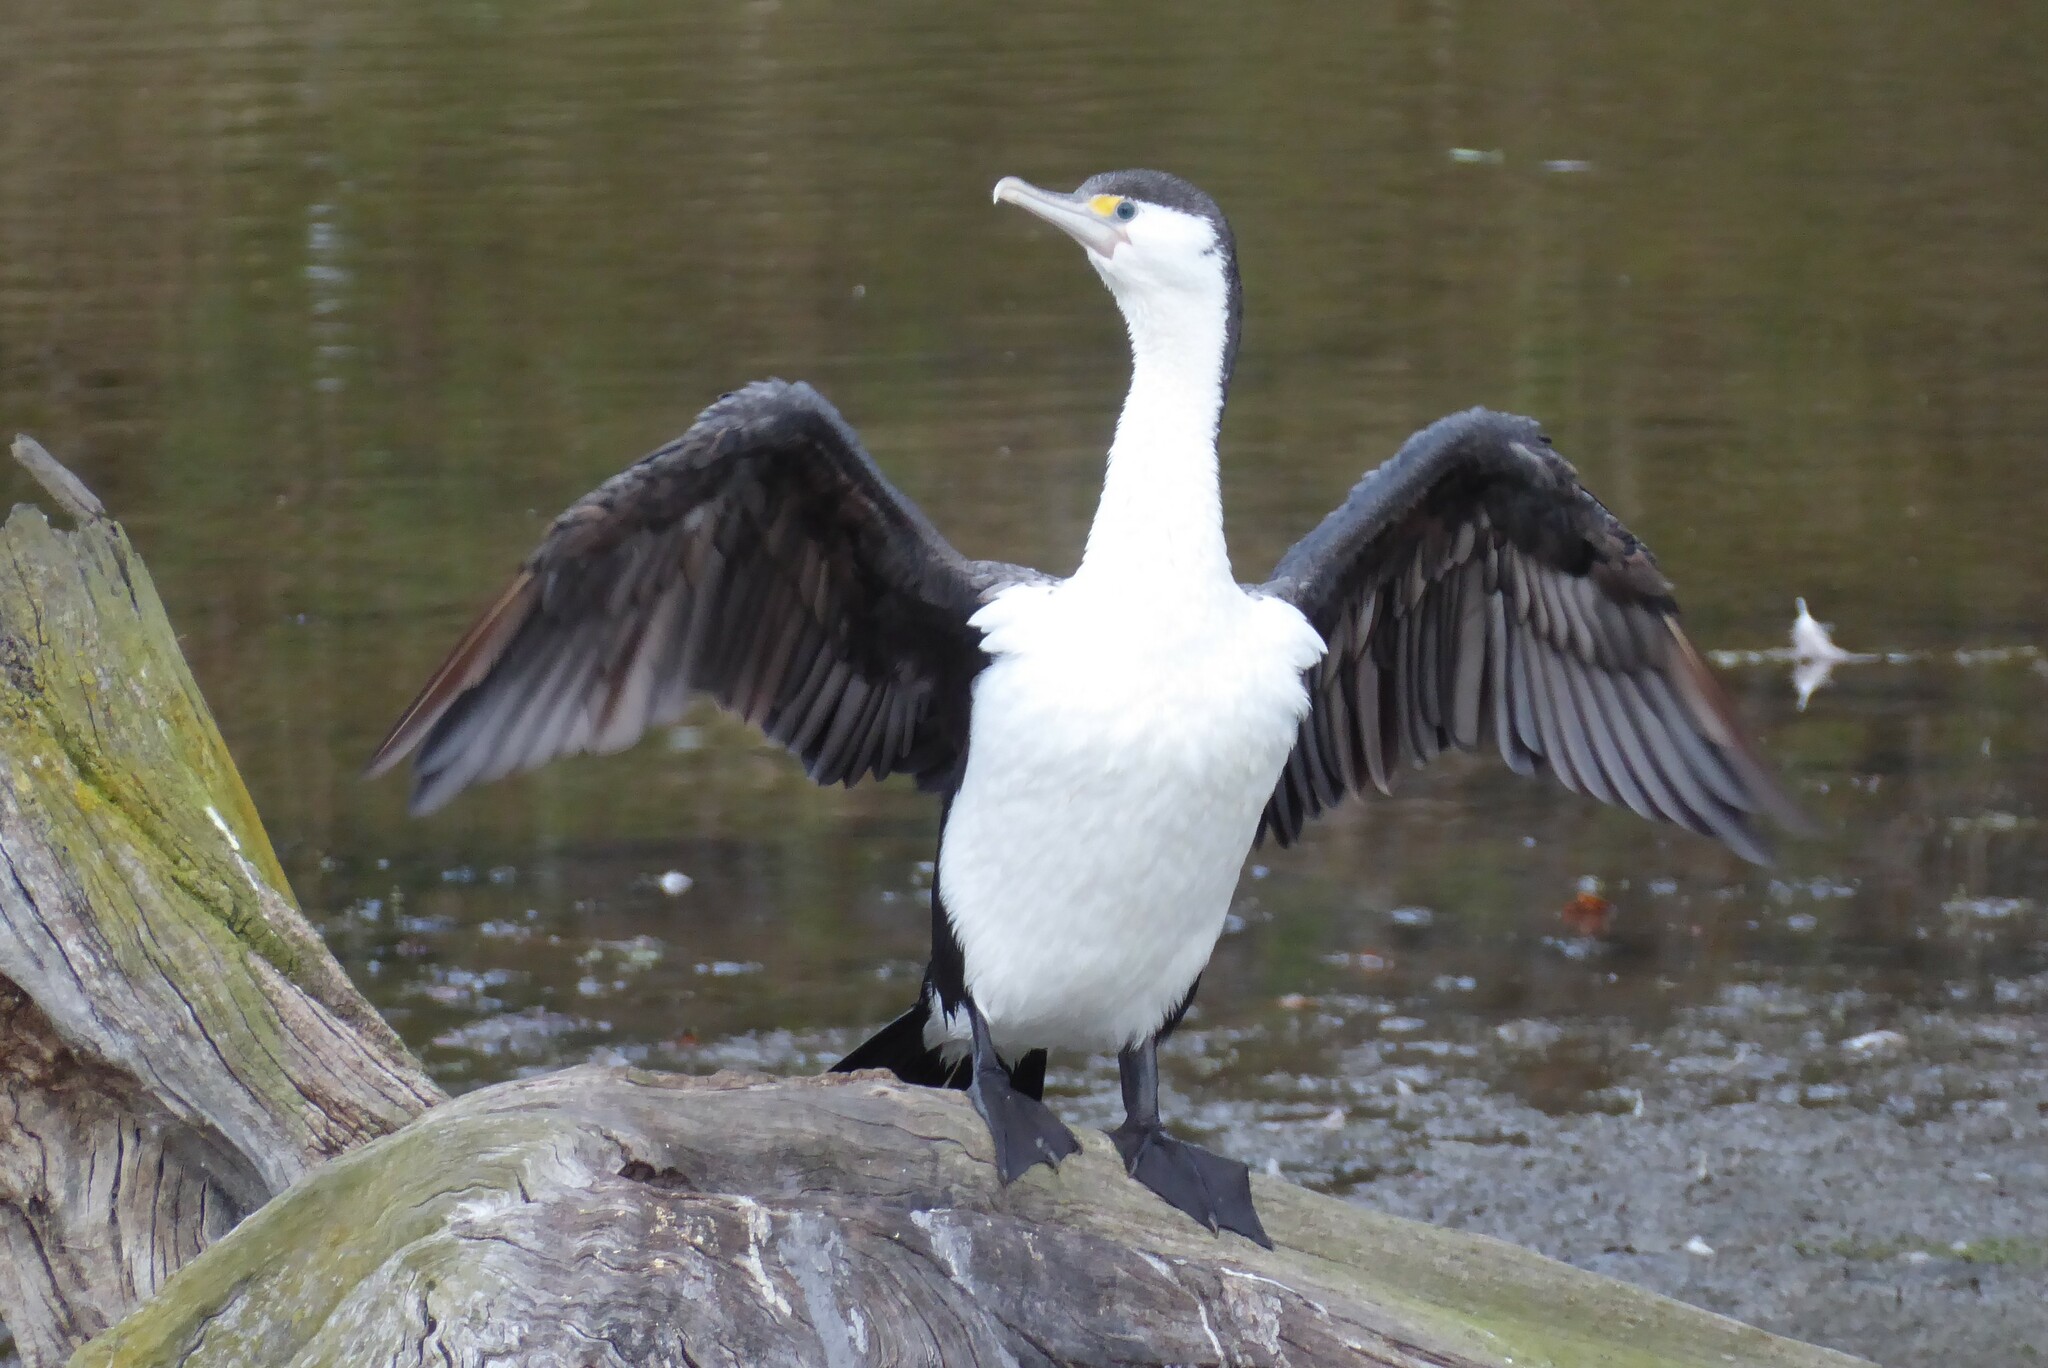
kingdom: Animalia
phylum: Chordata
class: Aves
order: Suliformes
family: Phalacrocoracidae
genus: Phalacrocorax
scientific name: Phalacrocorax varius
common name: Pied cormorant
